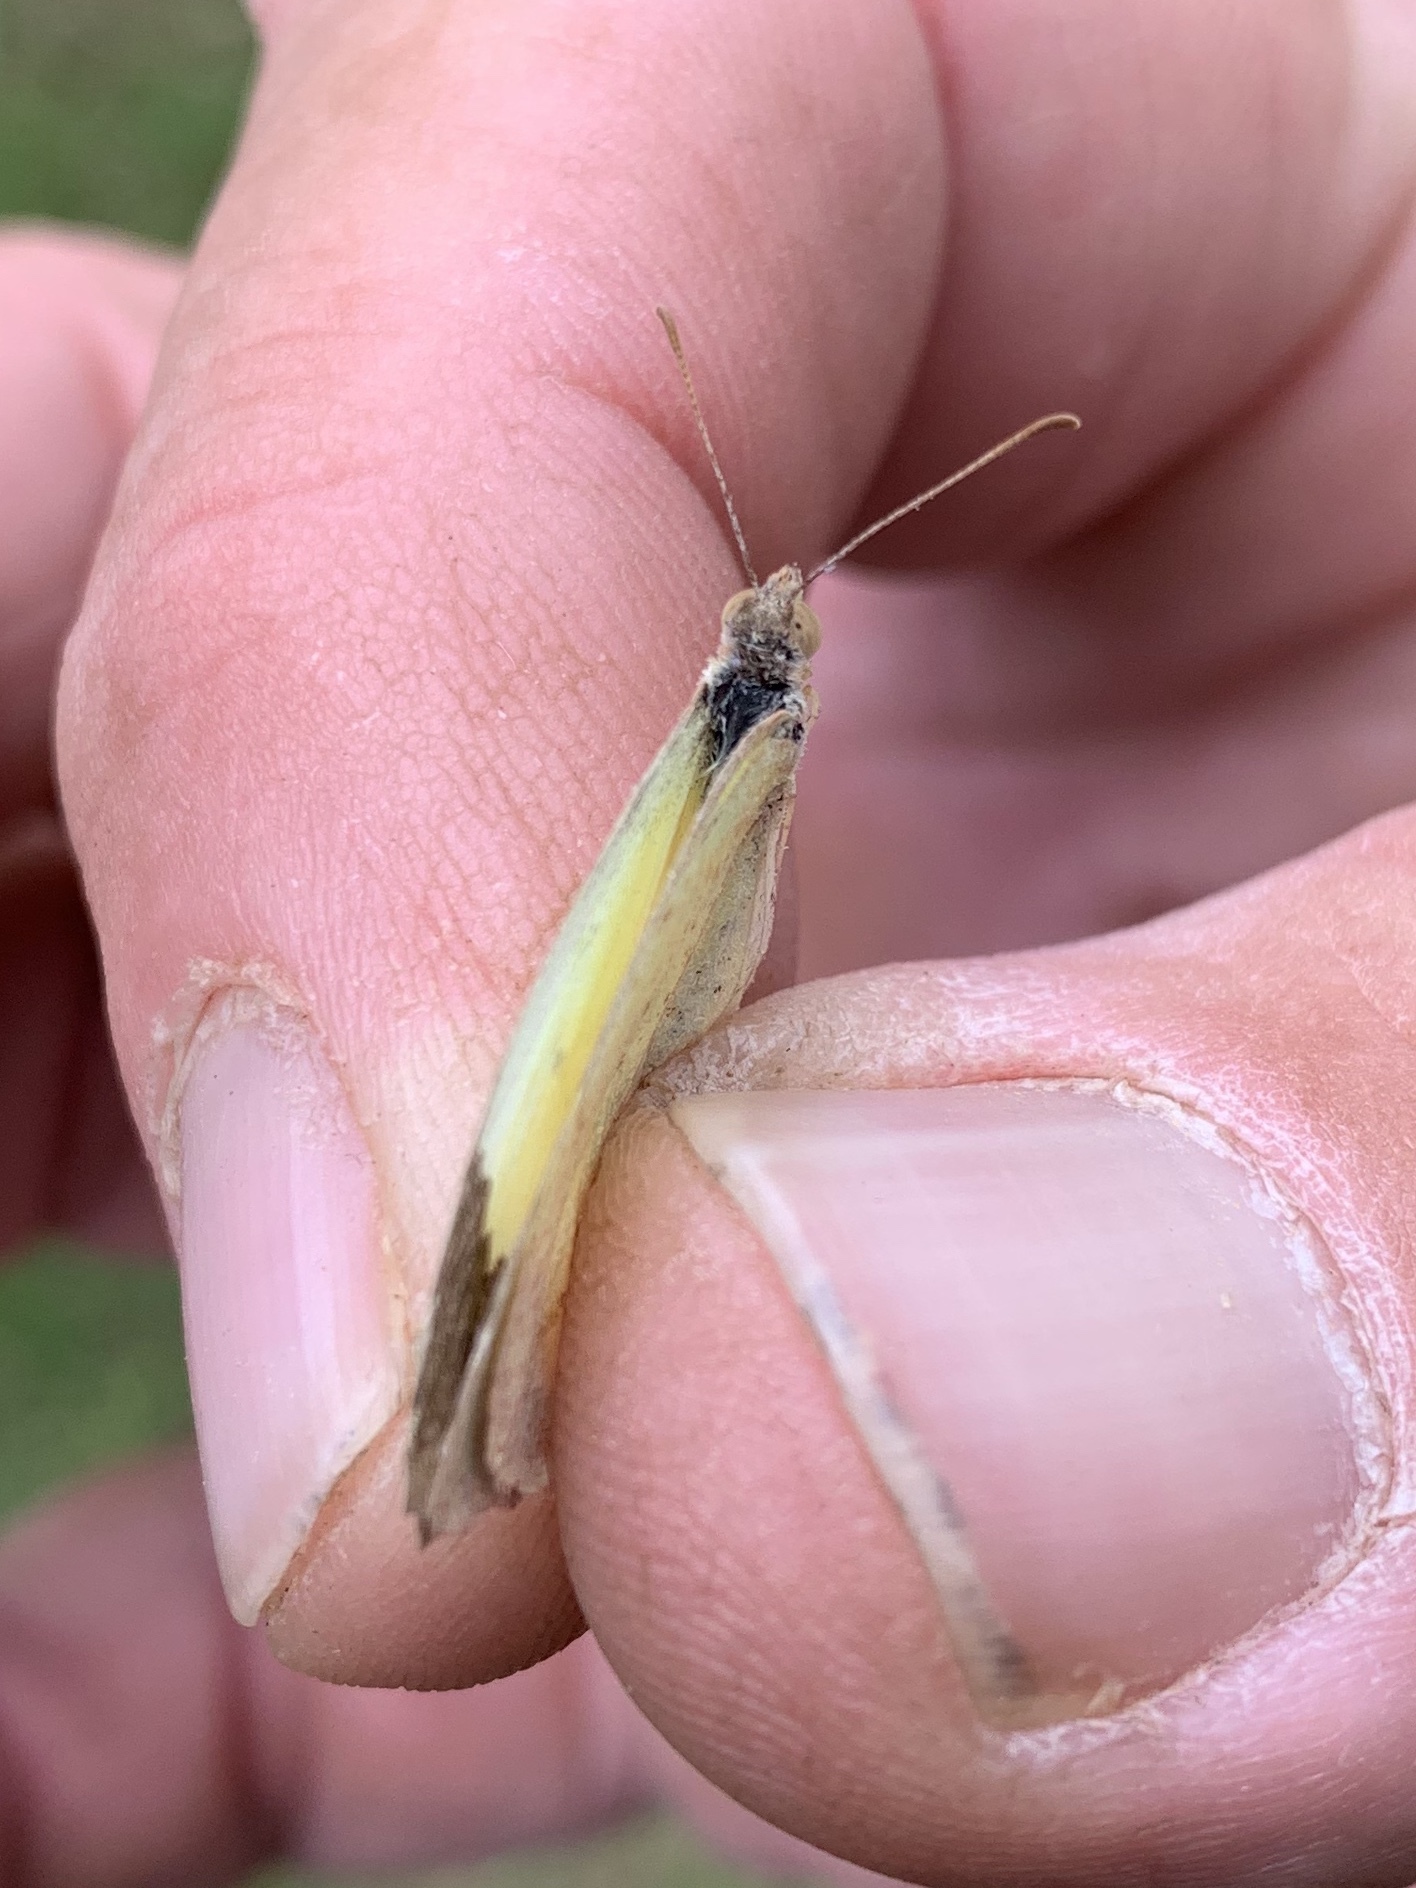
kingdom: Animalia
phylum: Arthropoda
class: Insecta
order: Lepidoptera
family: Pieridae
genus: Abaeis
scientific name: Abaeis mexicana
